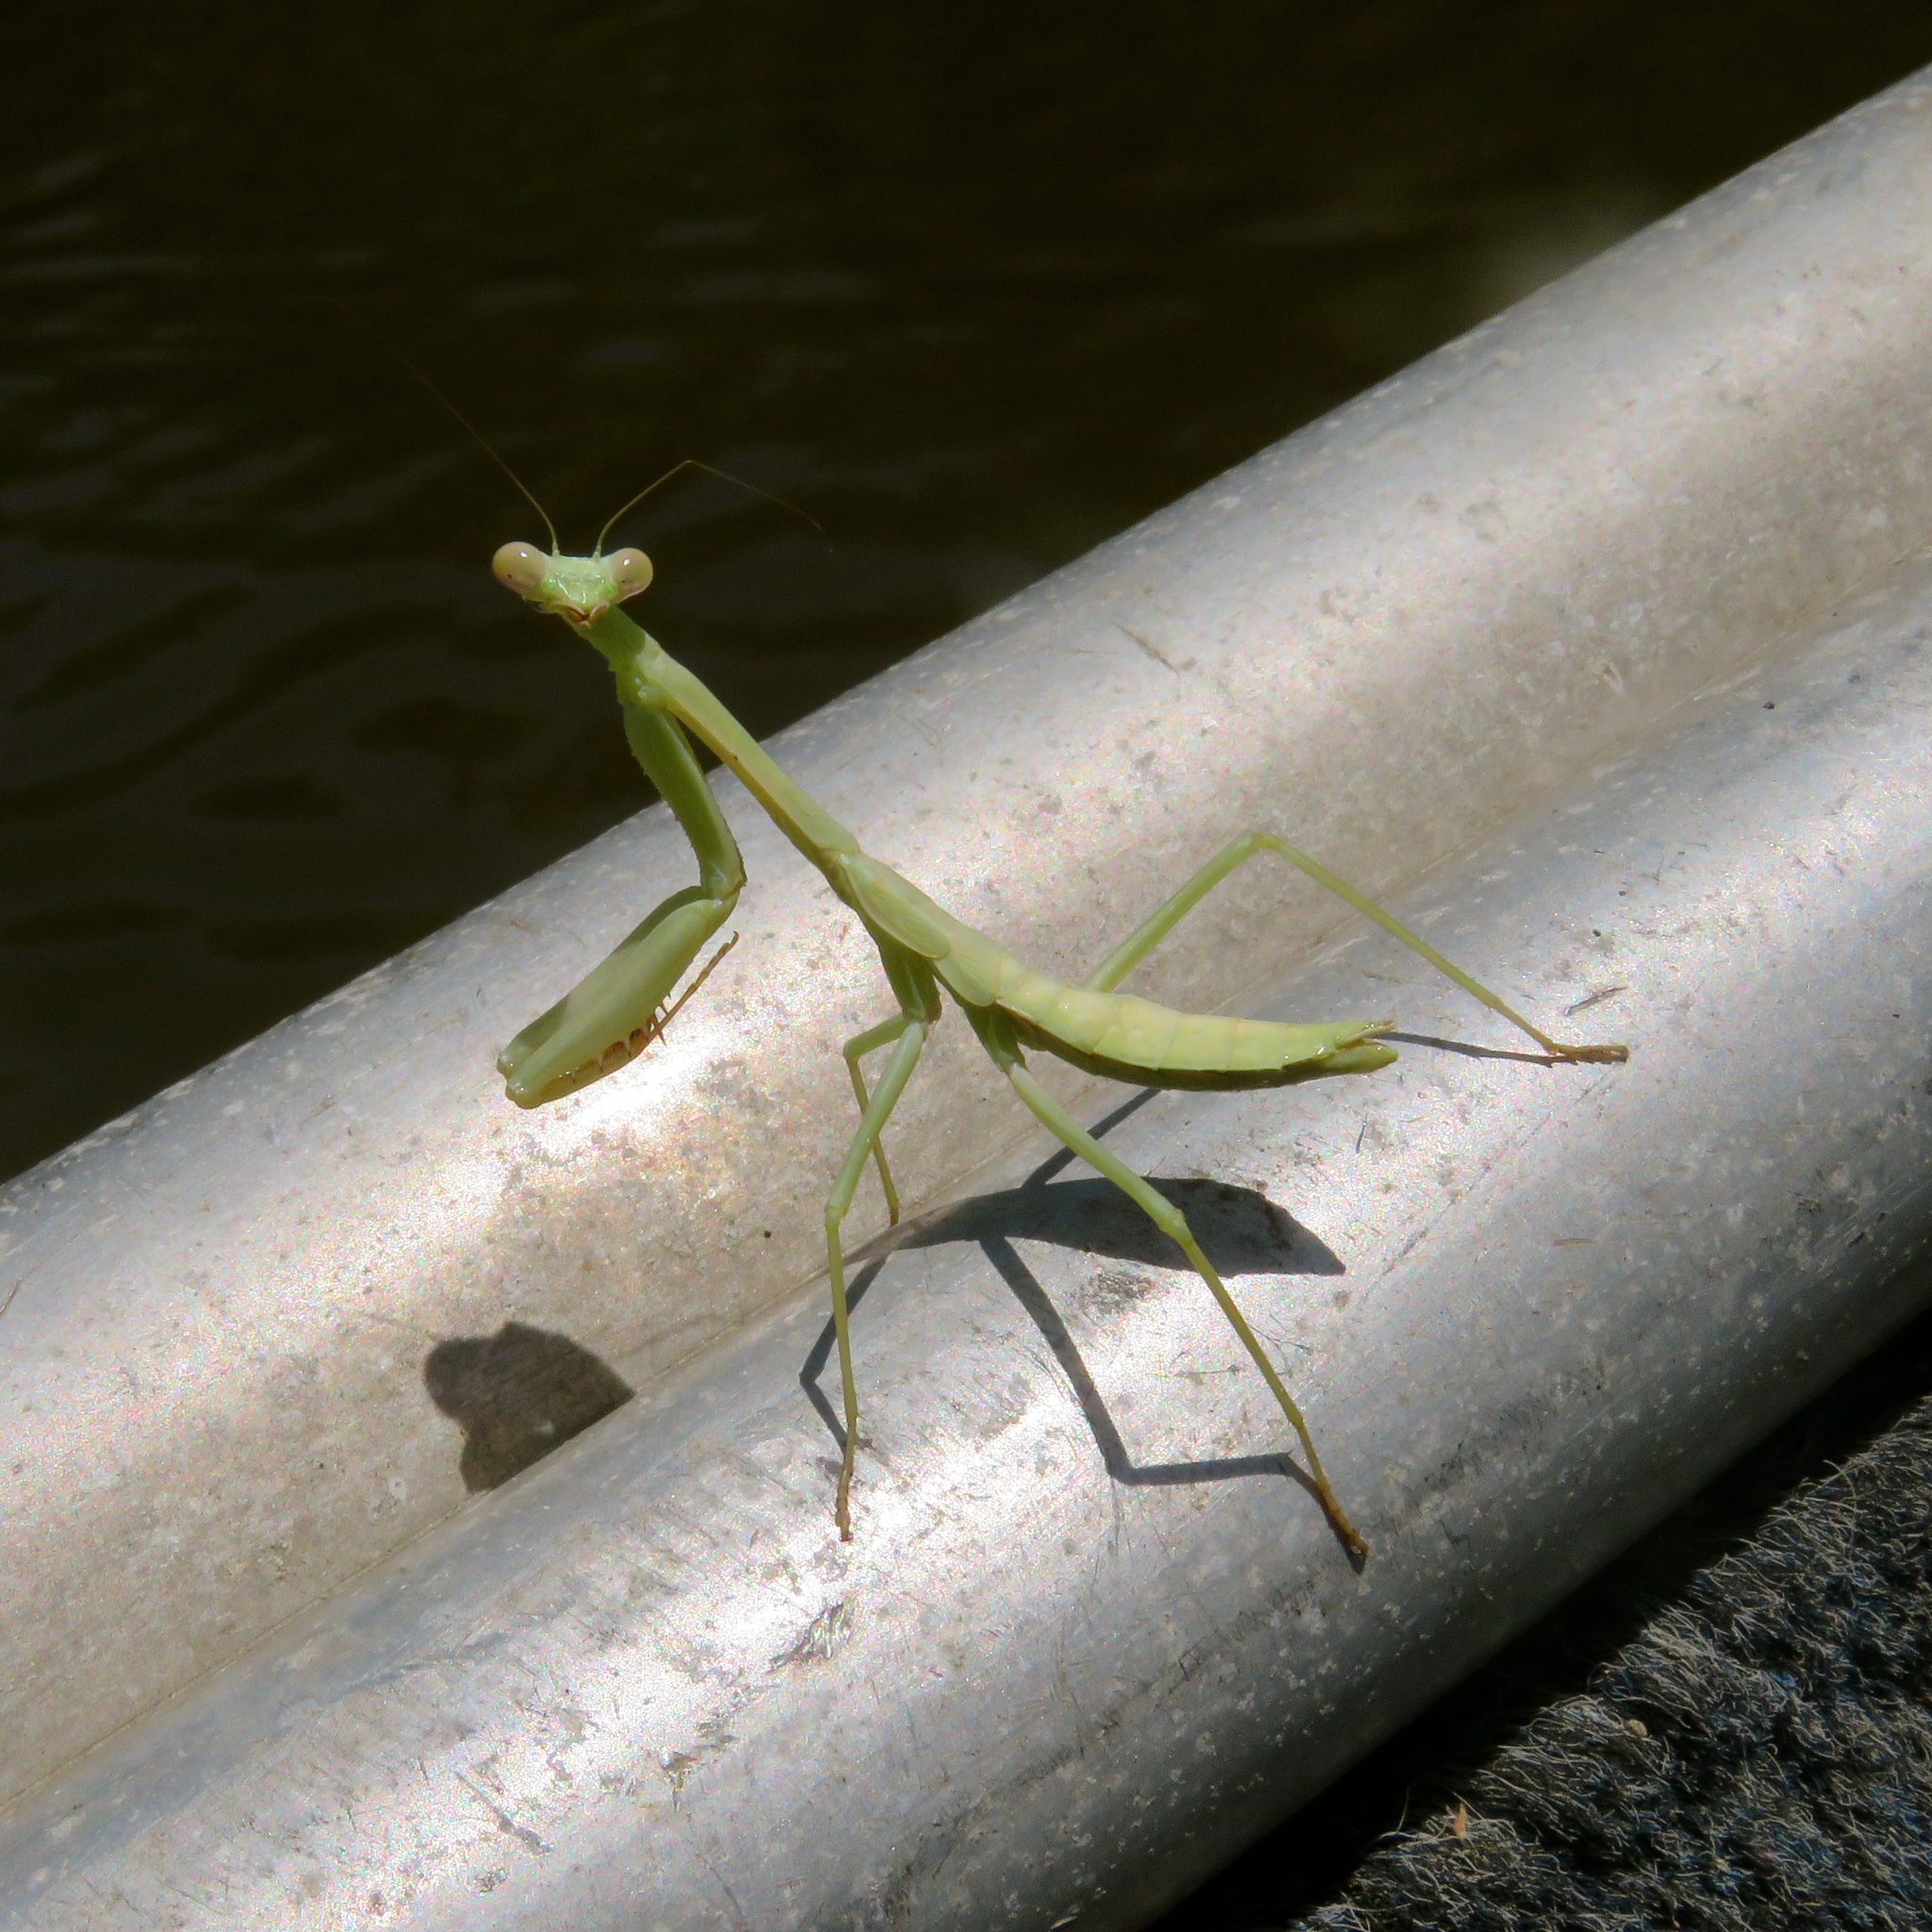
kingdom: Animalia
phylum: Arthropoda
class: Insecta
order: Mantodea
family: Mantidae
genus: Stagmomantis
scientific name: Stagmomantis carolina
